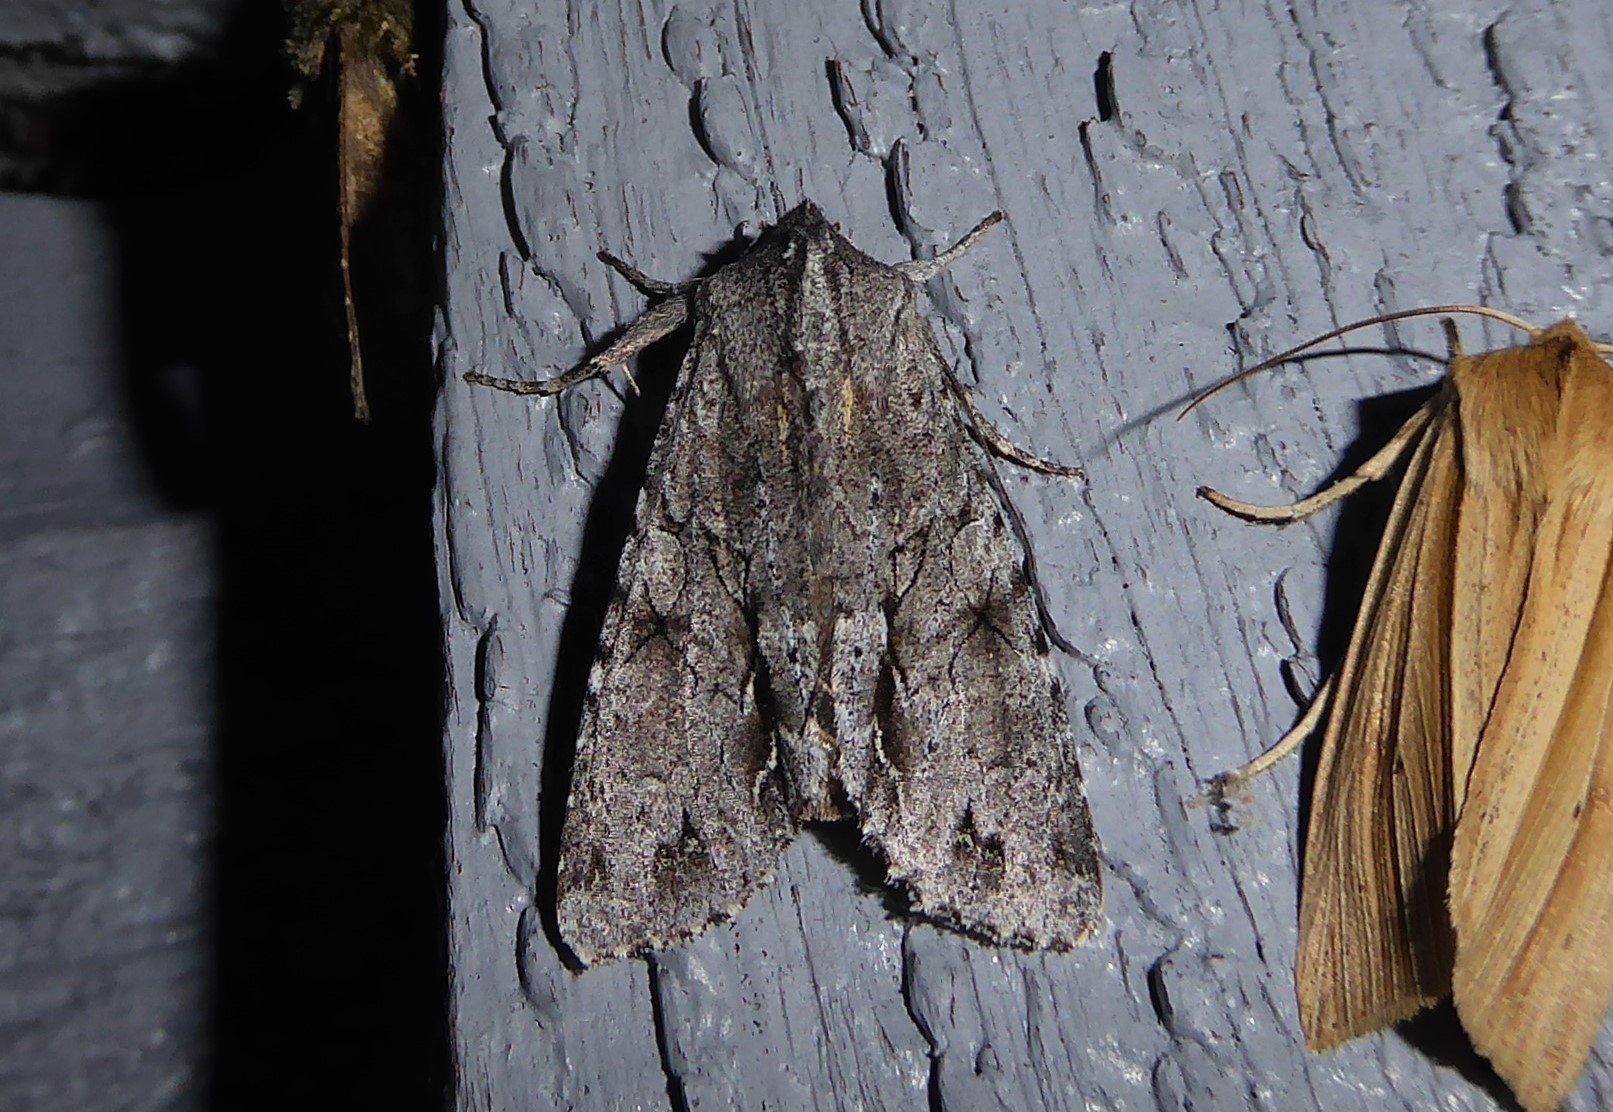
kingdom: Animalia
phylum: Arthropoda
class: Insecta
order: Lepidoptera
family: Noctuidae
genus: Ichneutica
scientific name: Ichneutica
